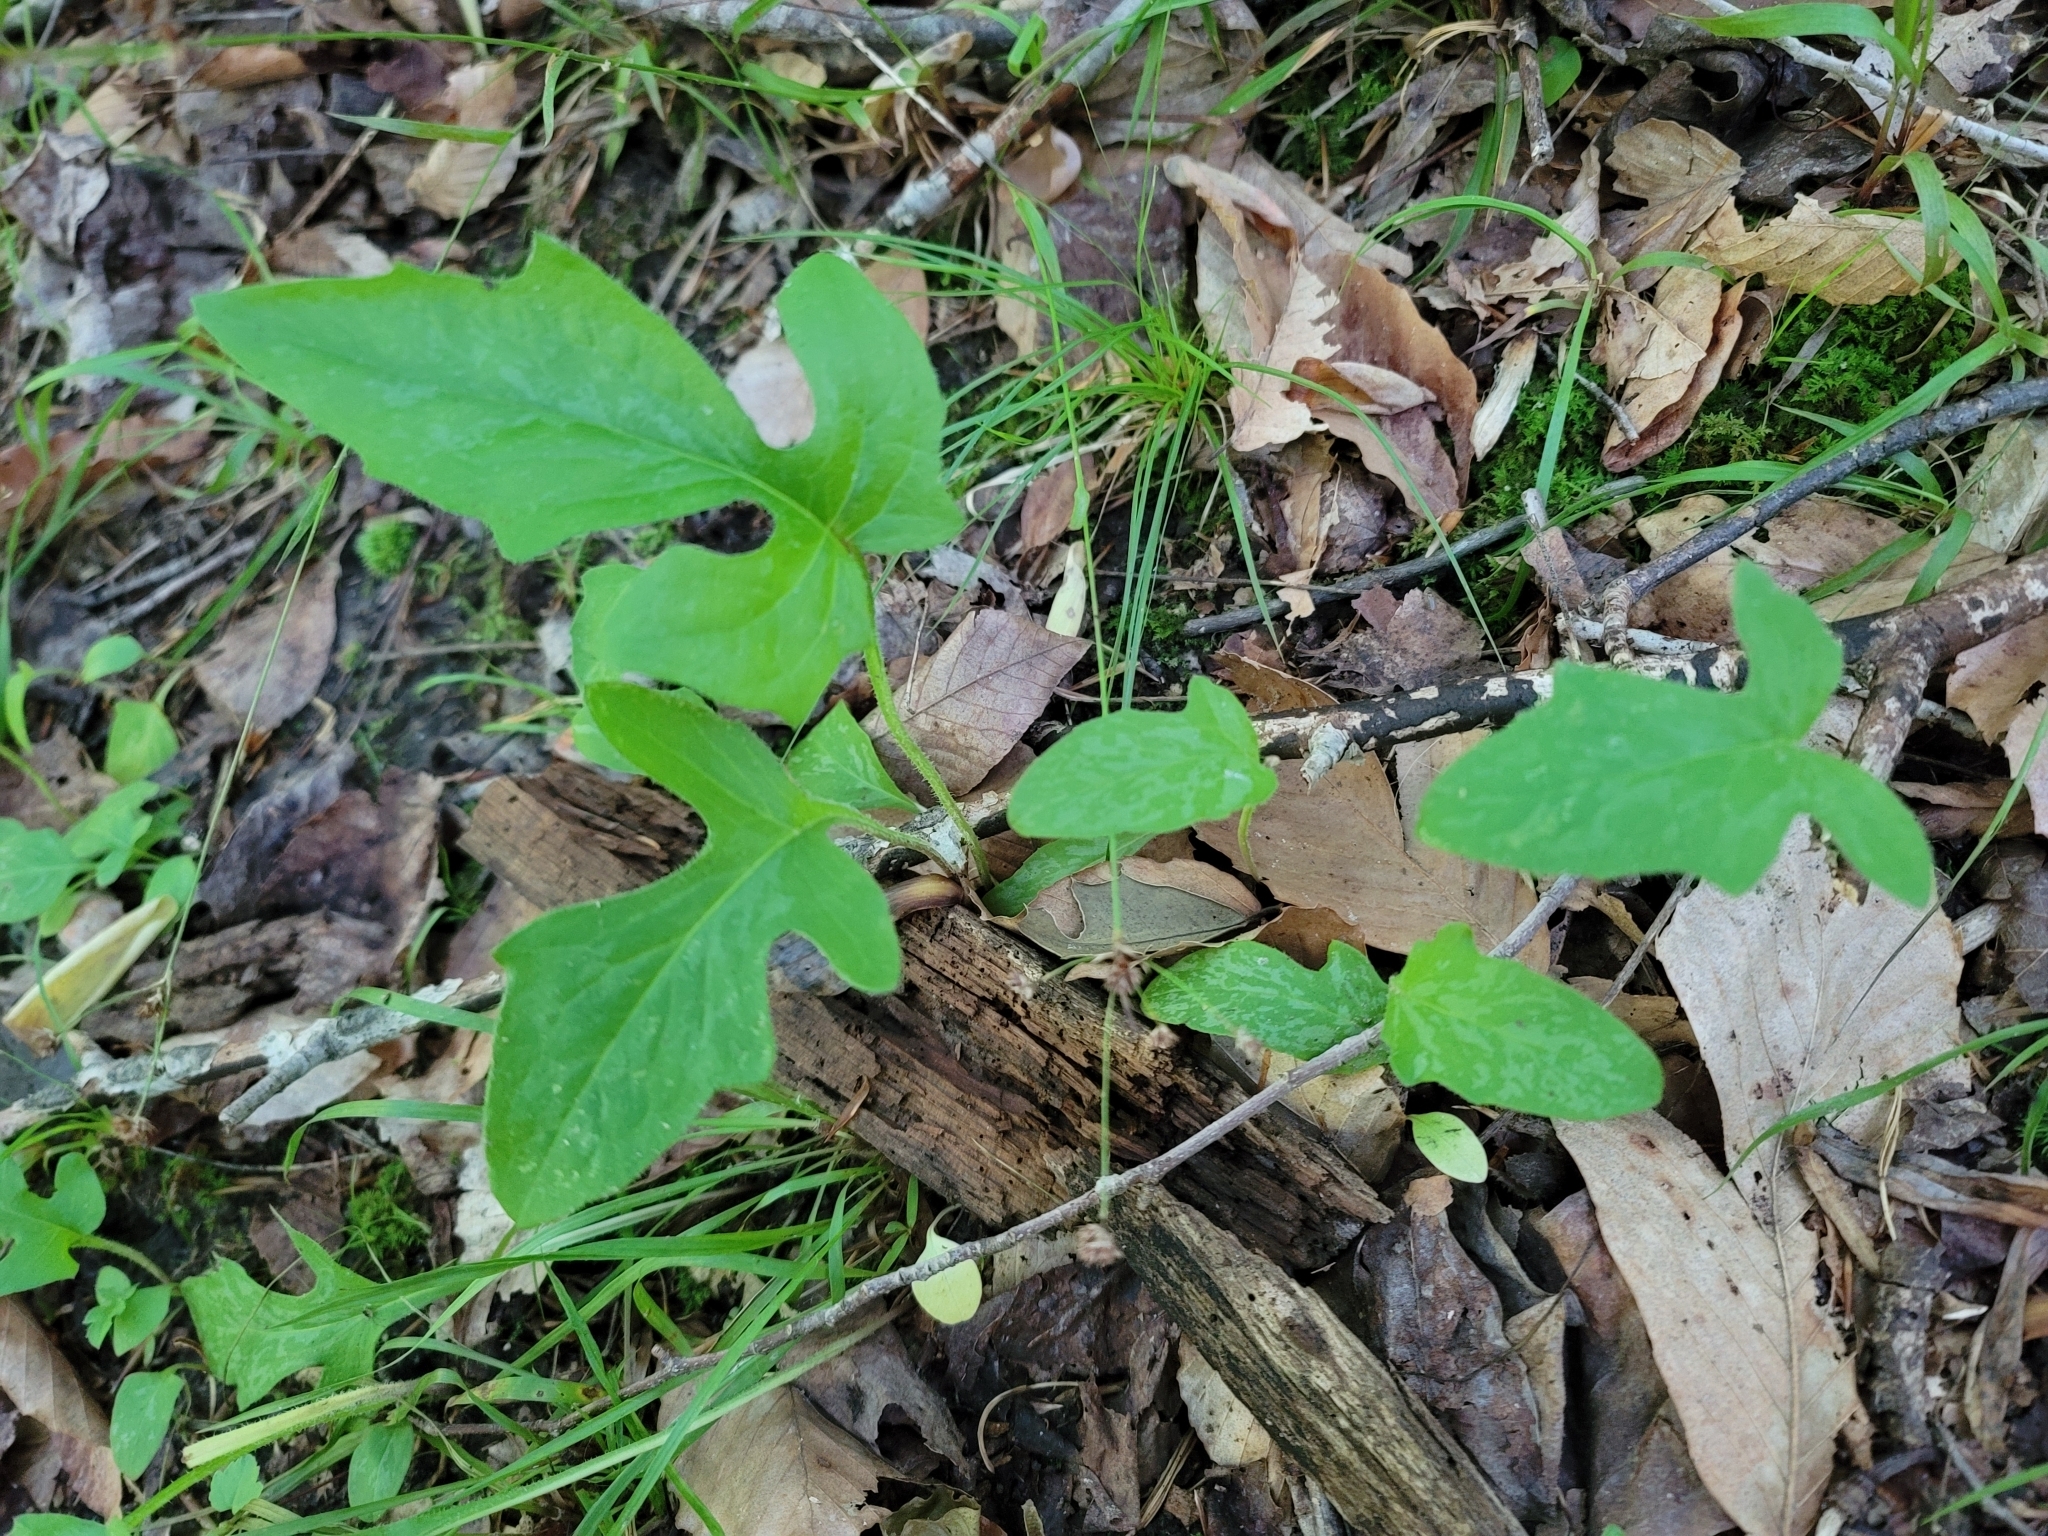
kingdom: Plantae
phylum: Tracheophyta
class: Magnoliopsida
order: Asterales
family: Asteraceae
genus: Nabalus
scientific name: Nabalus serpentarius
